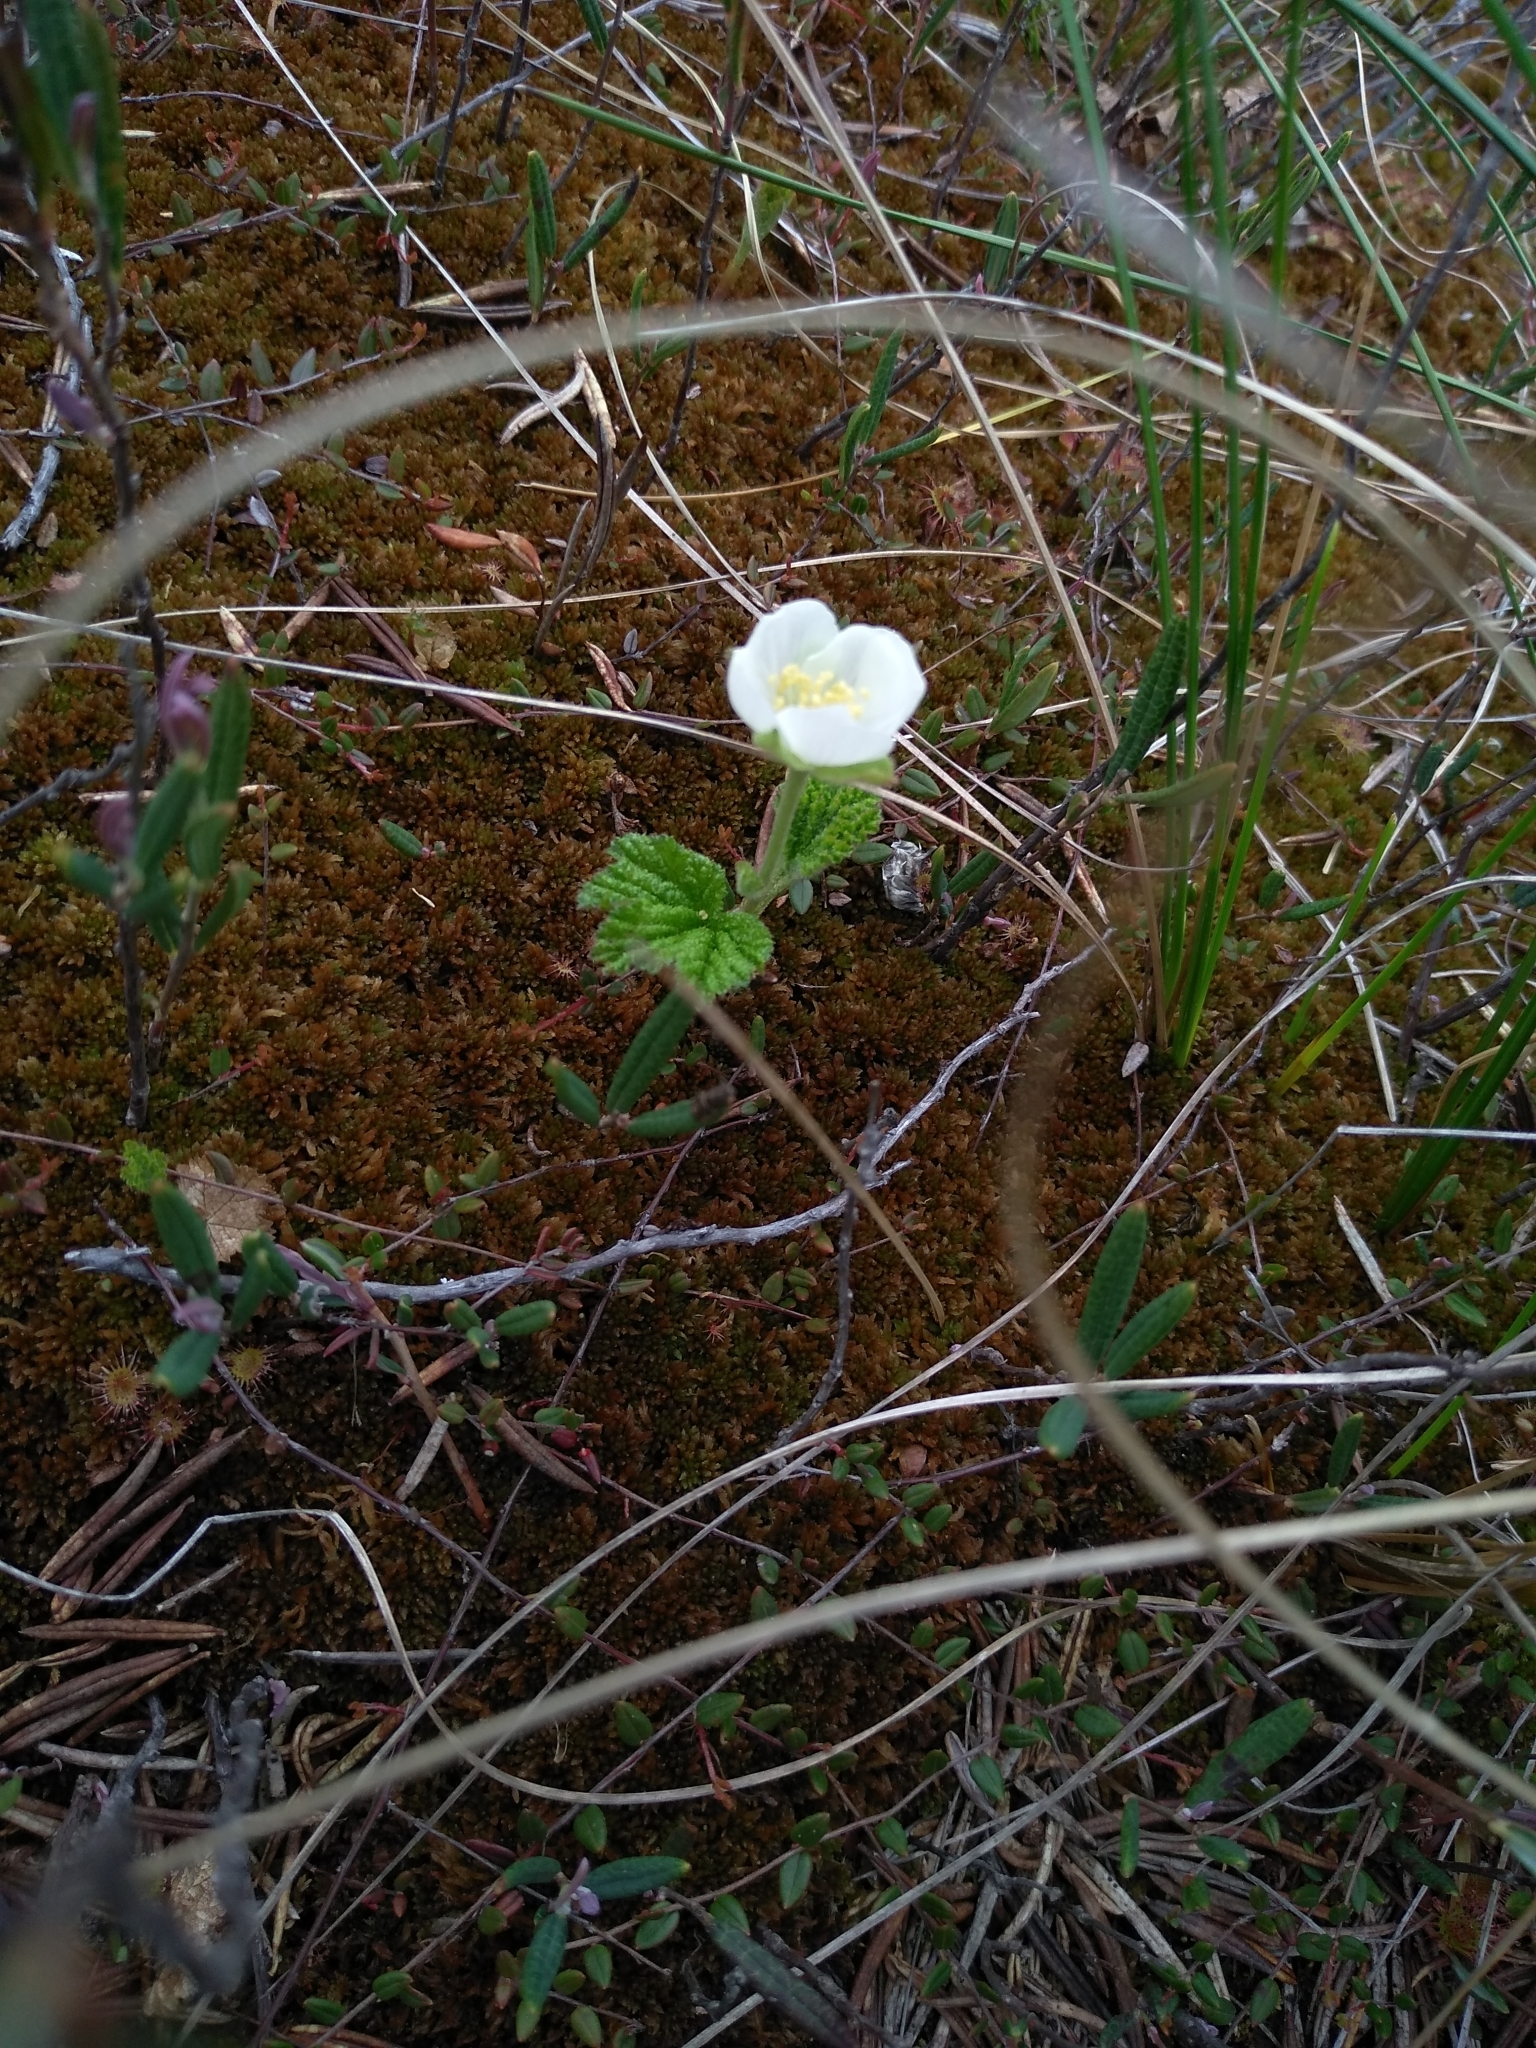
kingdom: Plantae
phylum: Tracheophyta
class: Magnoliopsida
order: Rosales
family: Rosaceae
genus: Rubus
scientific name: Rubus chamaemorus
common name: Cloudberry
